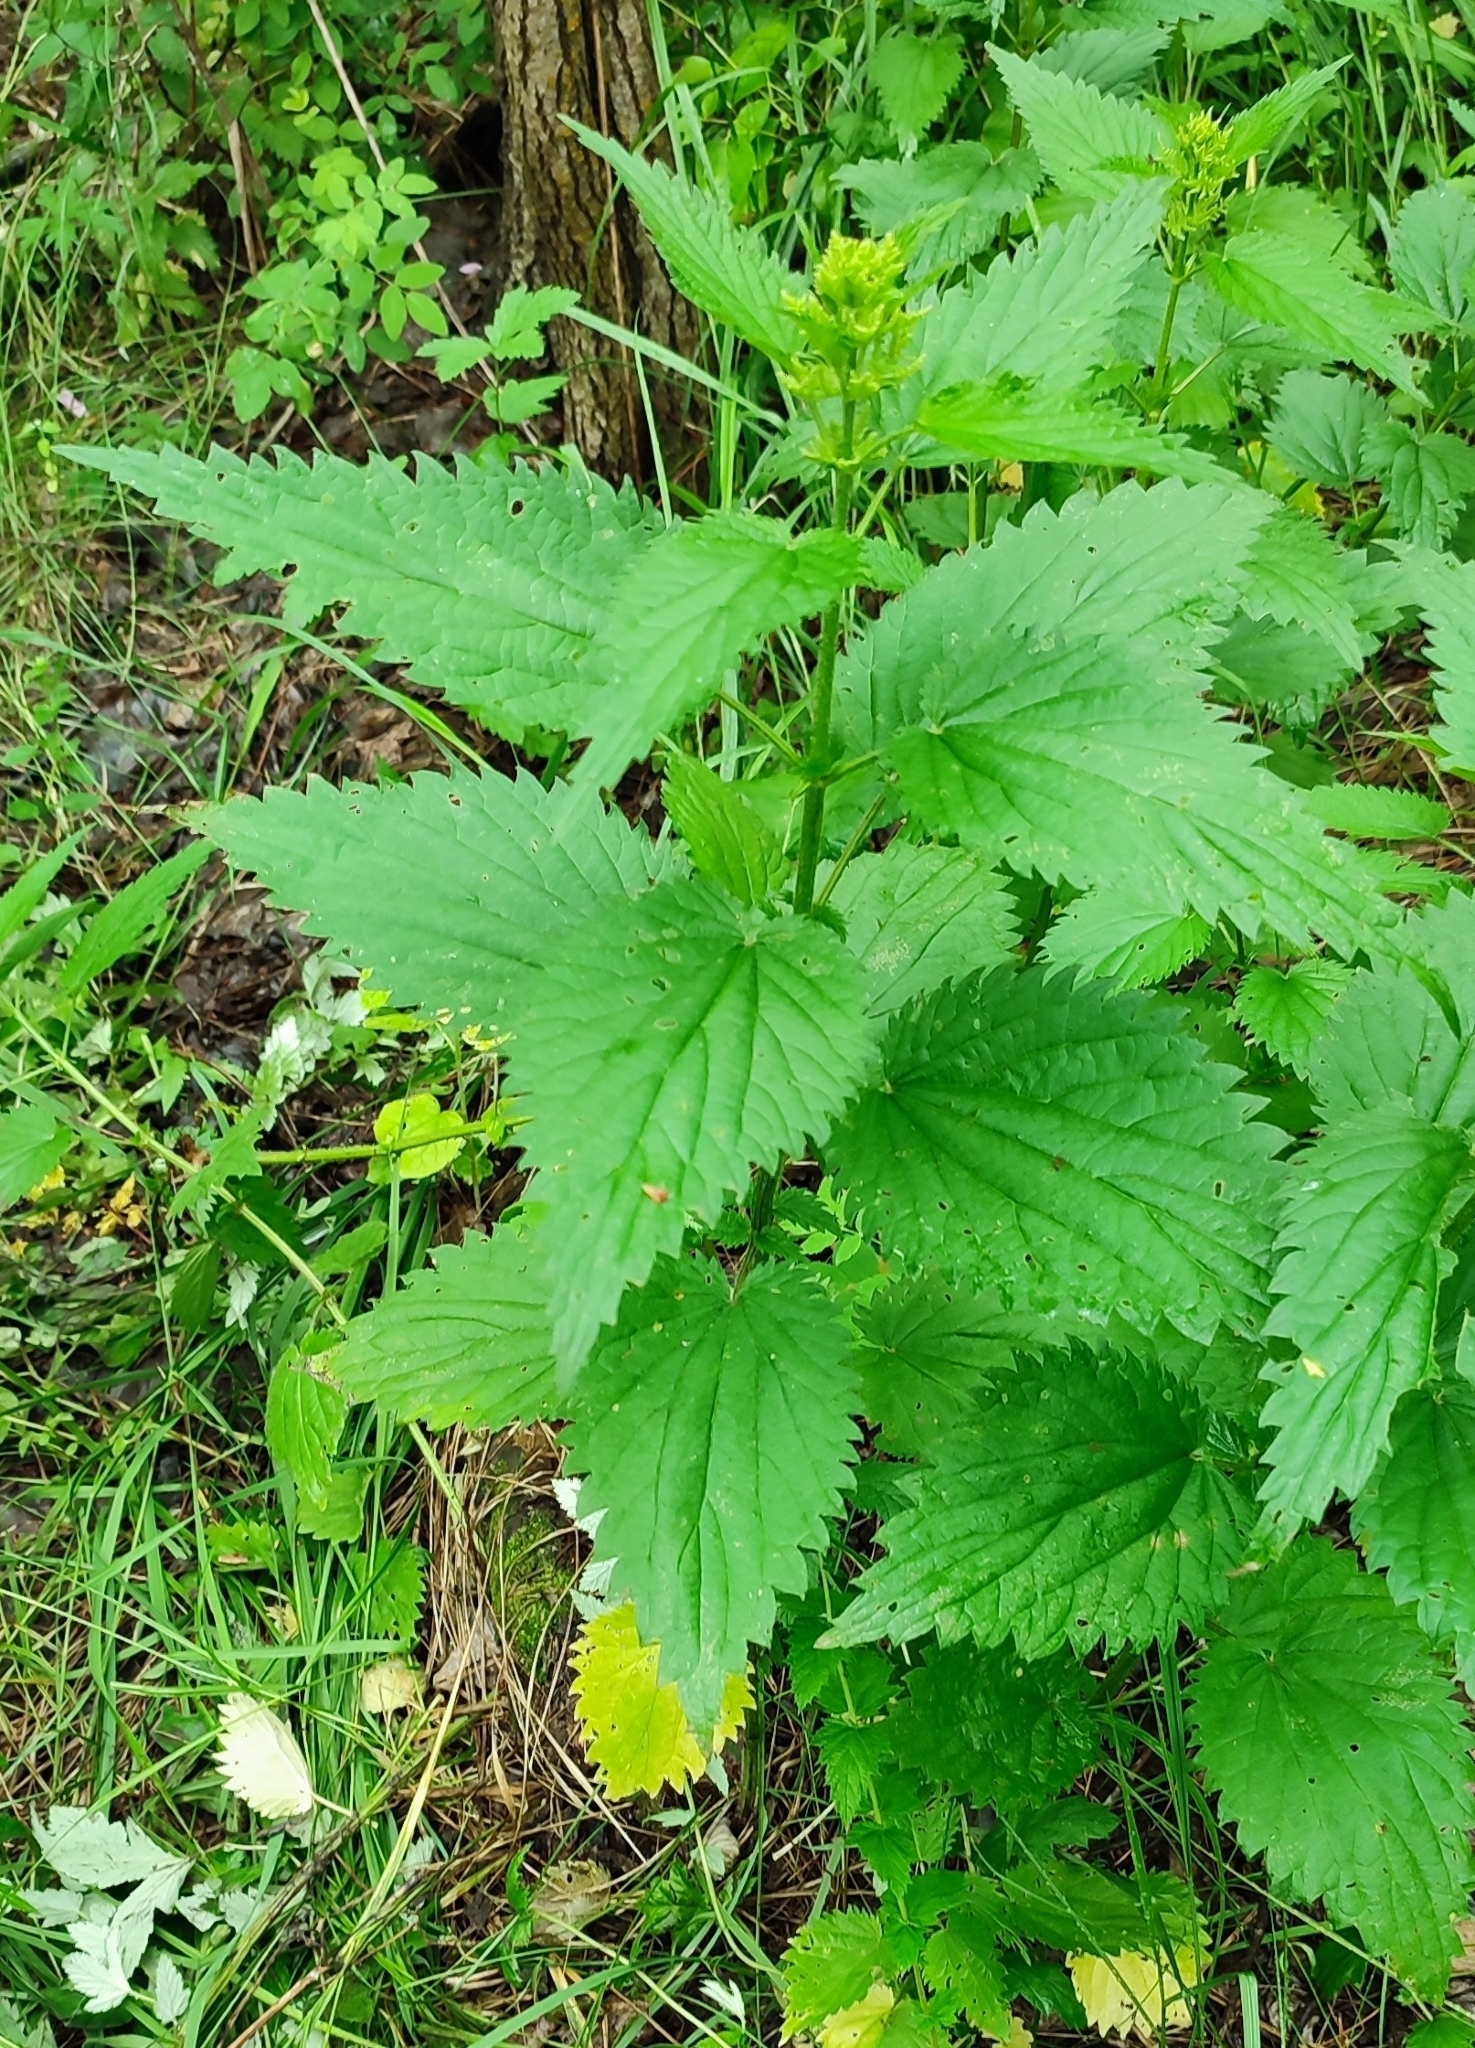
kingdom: Plantae
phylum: Tracheophyta
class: Magnoliopsida
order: Rosales
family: Urticaceae
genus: Urtica
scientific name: Urtica dioica
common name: Common nettle
